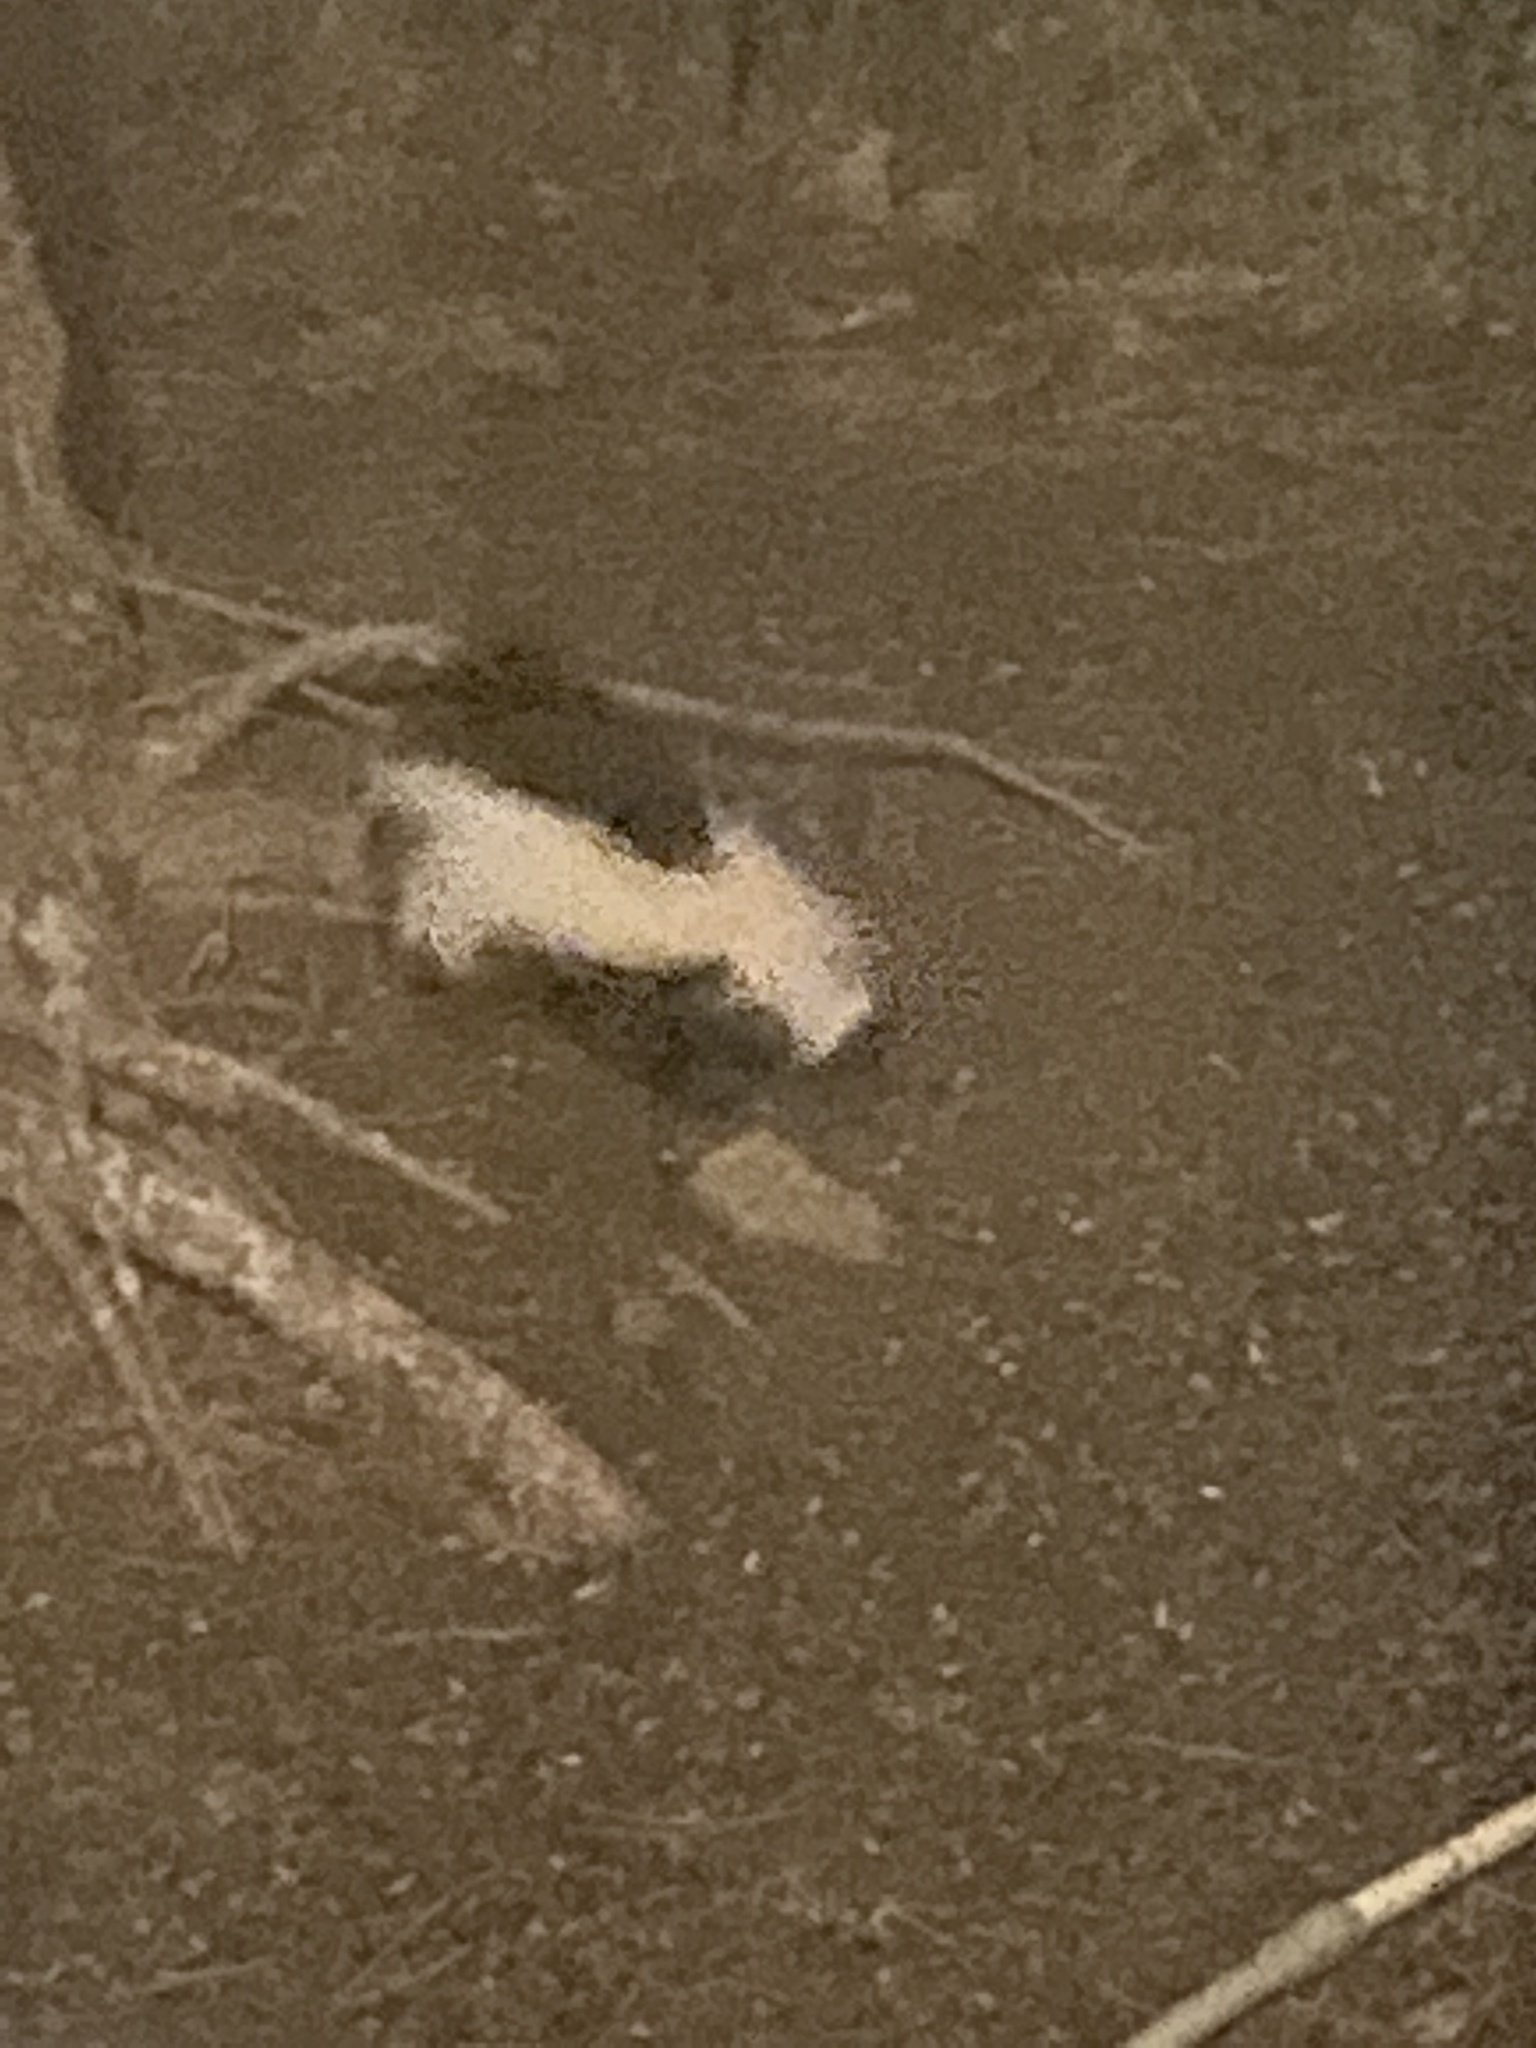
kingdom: Animalia
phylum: Chordata
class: Mammalia
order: Carnivora
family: Mephitidae
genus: Mephitis
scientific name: Mephitis mephitis
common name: Striped skunk
